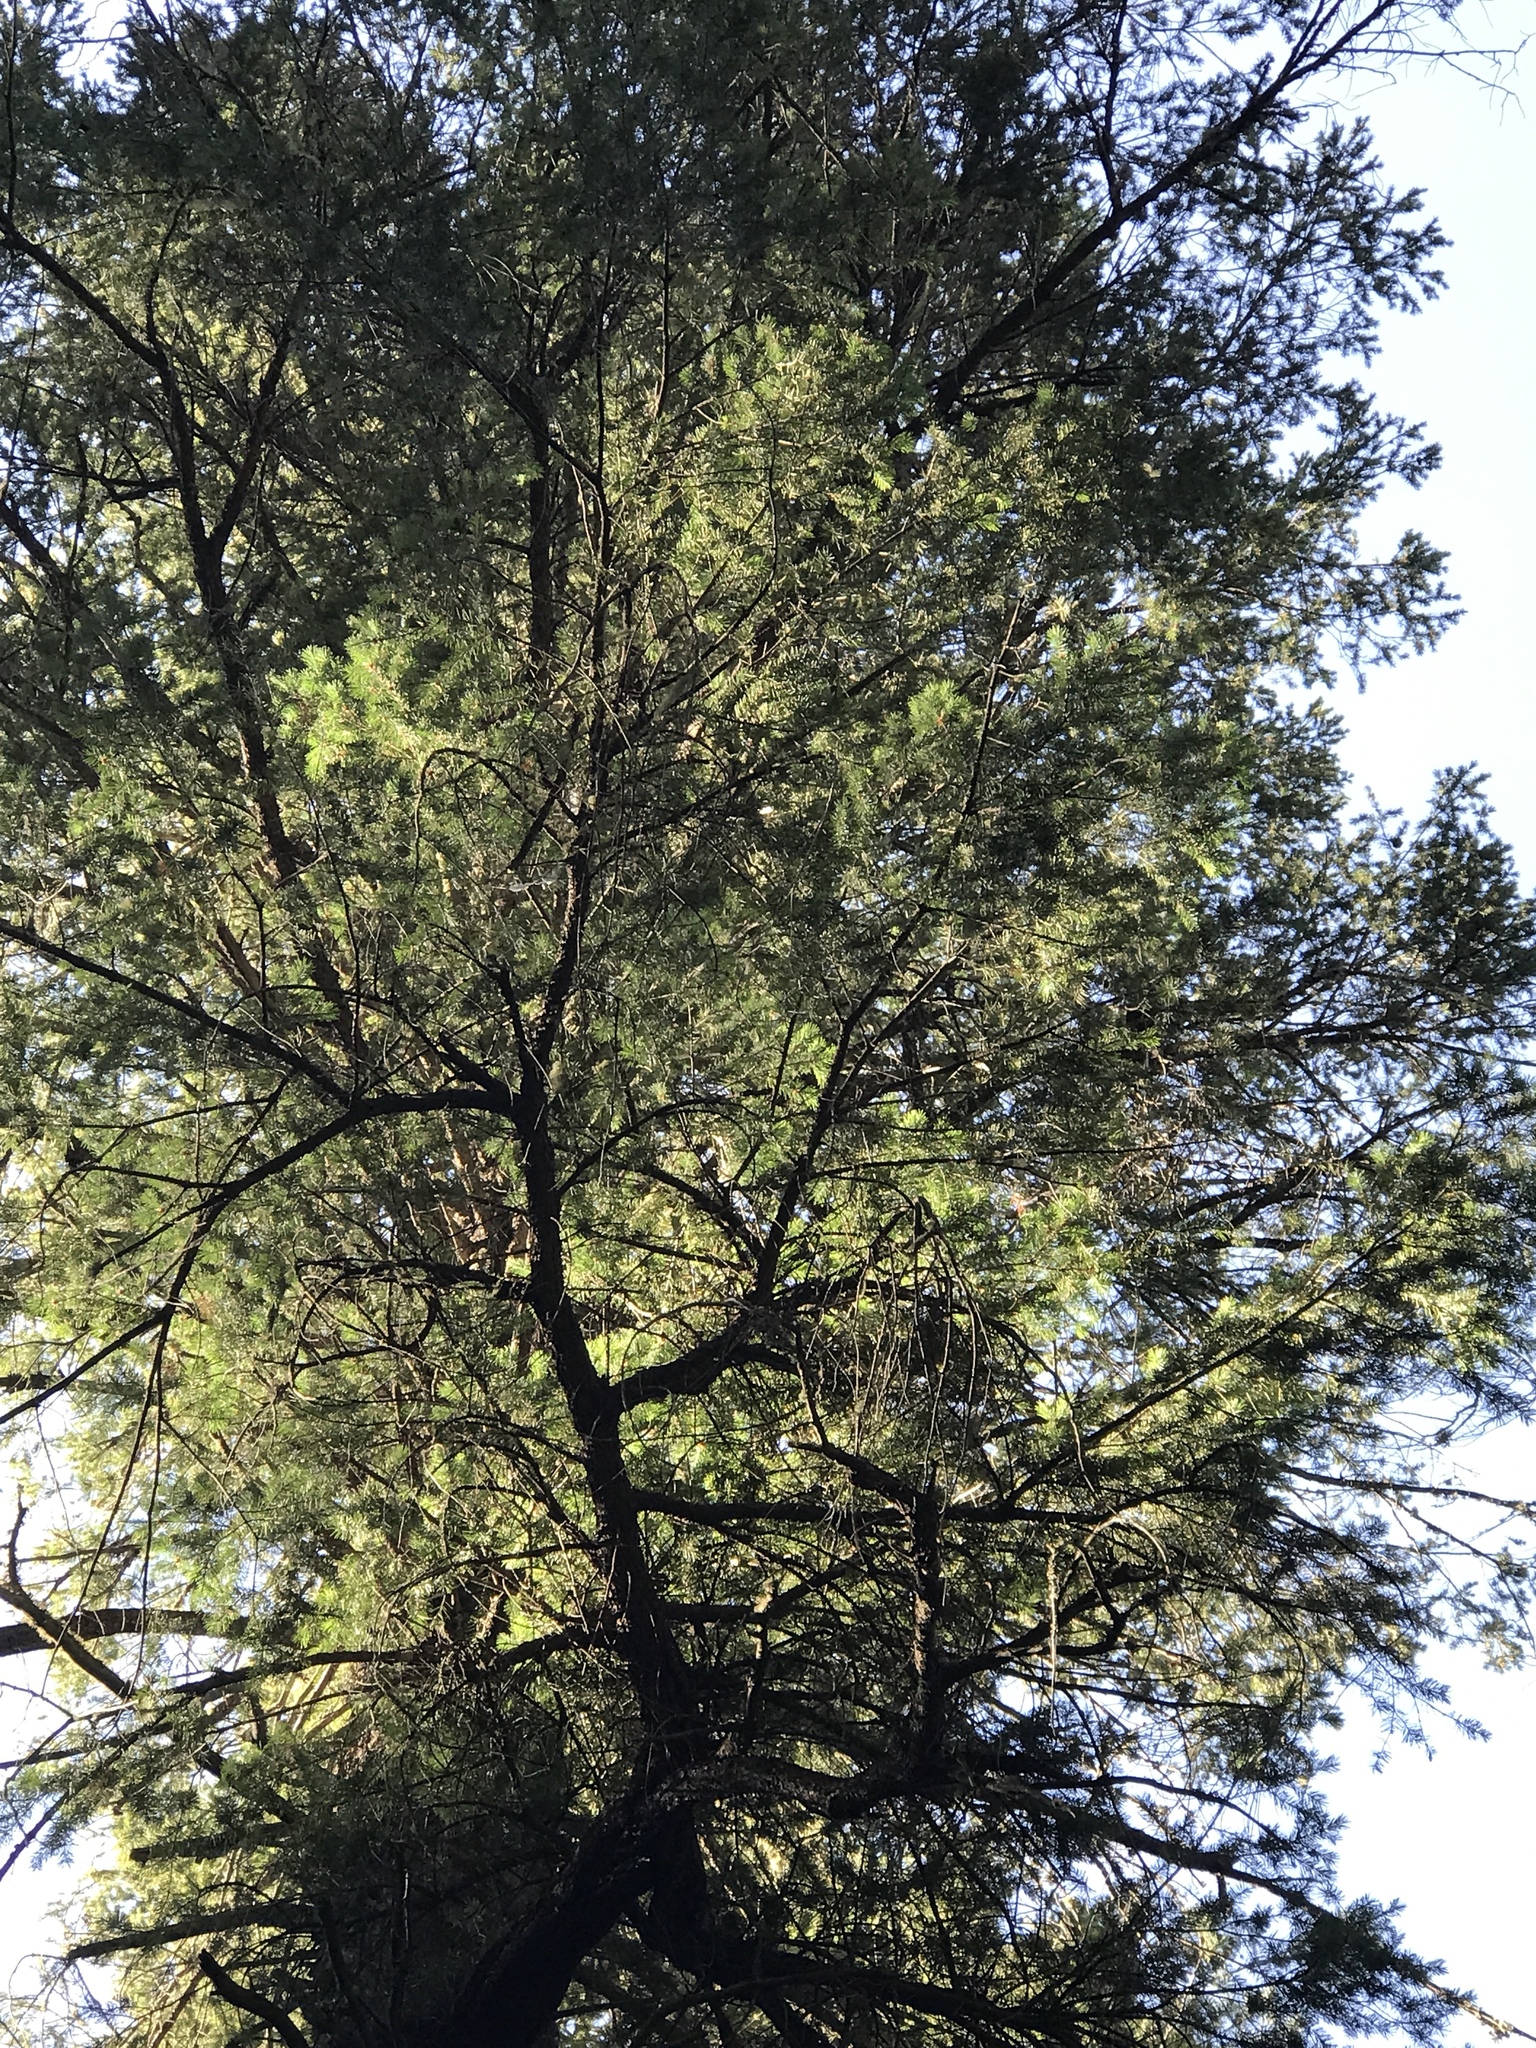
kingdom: Plantae
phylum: Tracheophyta
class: Pinopsida
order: Pinales
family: Pinaceae
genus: Pseudotsuga
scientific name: Pseudotsuga menziesii
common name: Douglas fir
